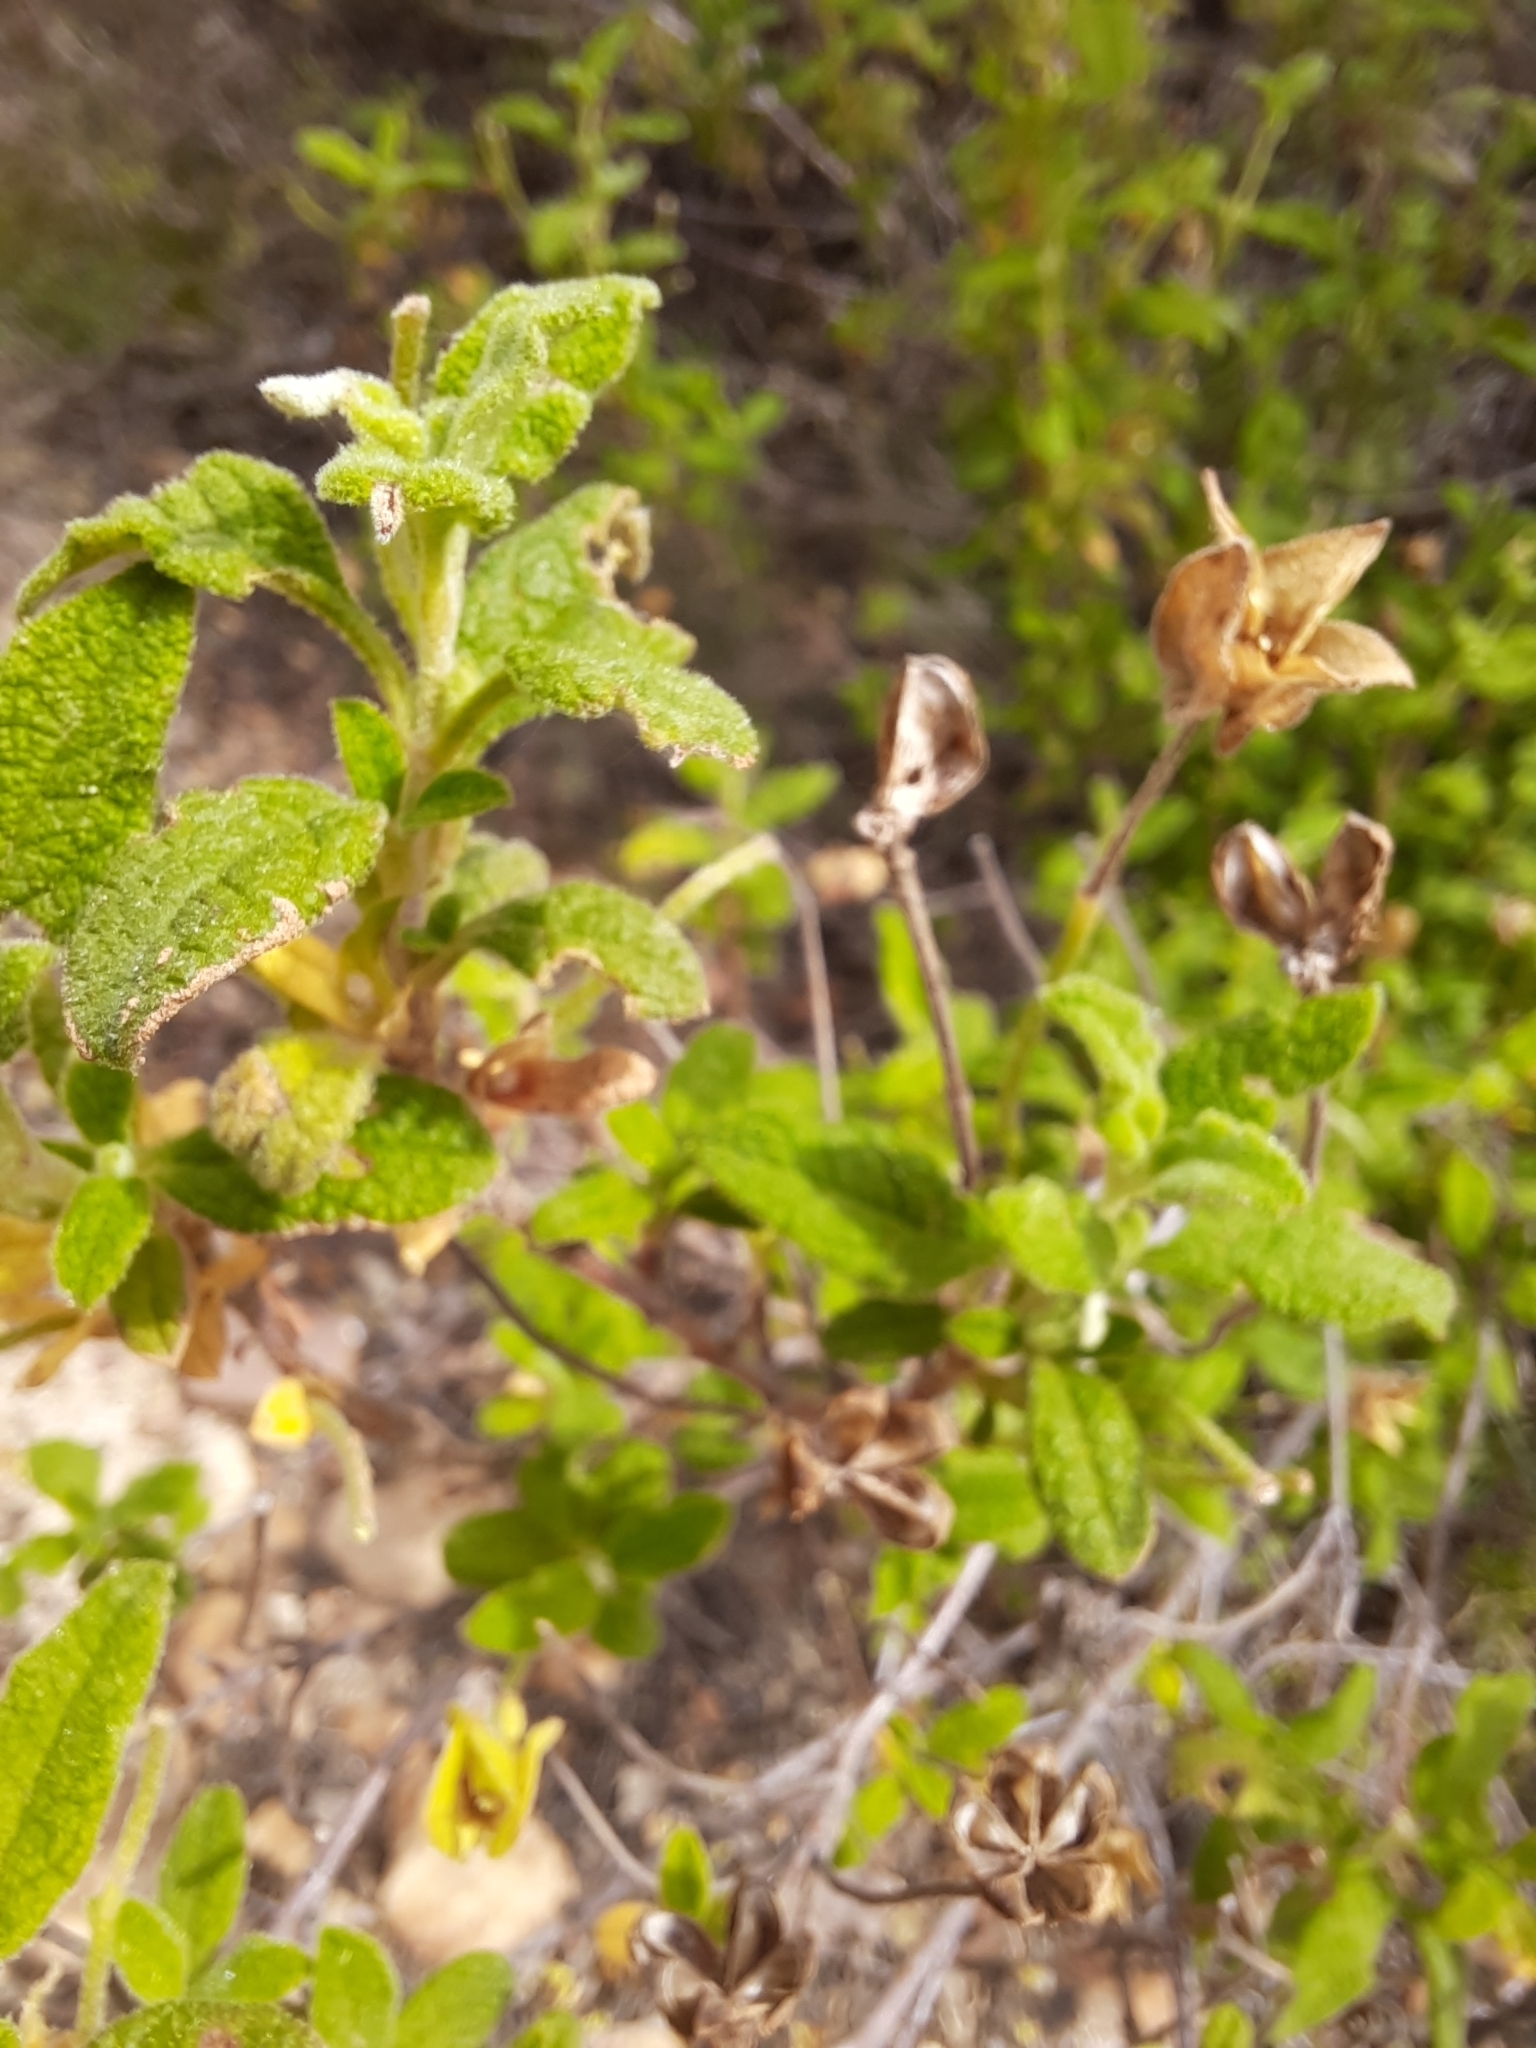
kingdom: Plantae
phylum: Tracheophyta
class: Magnoliopsida
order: Malvales
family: Cistaceae
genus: Cistus
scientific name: Cistus salviifolius
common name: Salvia cistus
